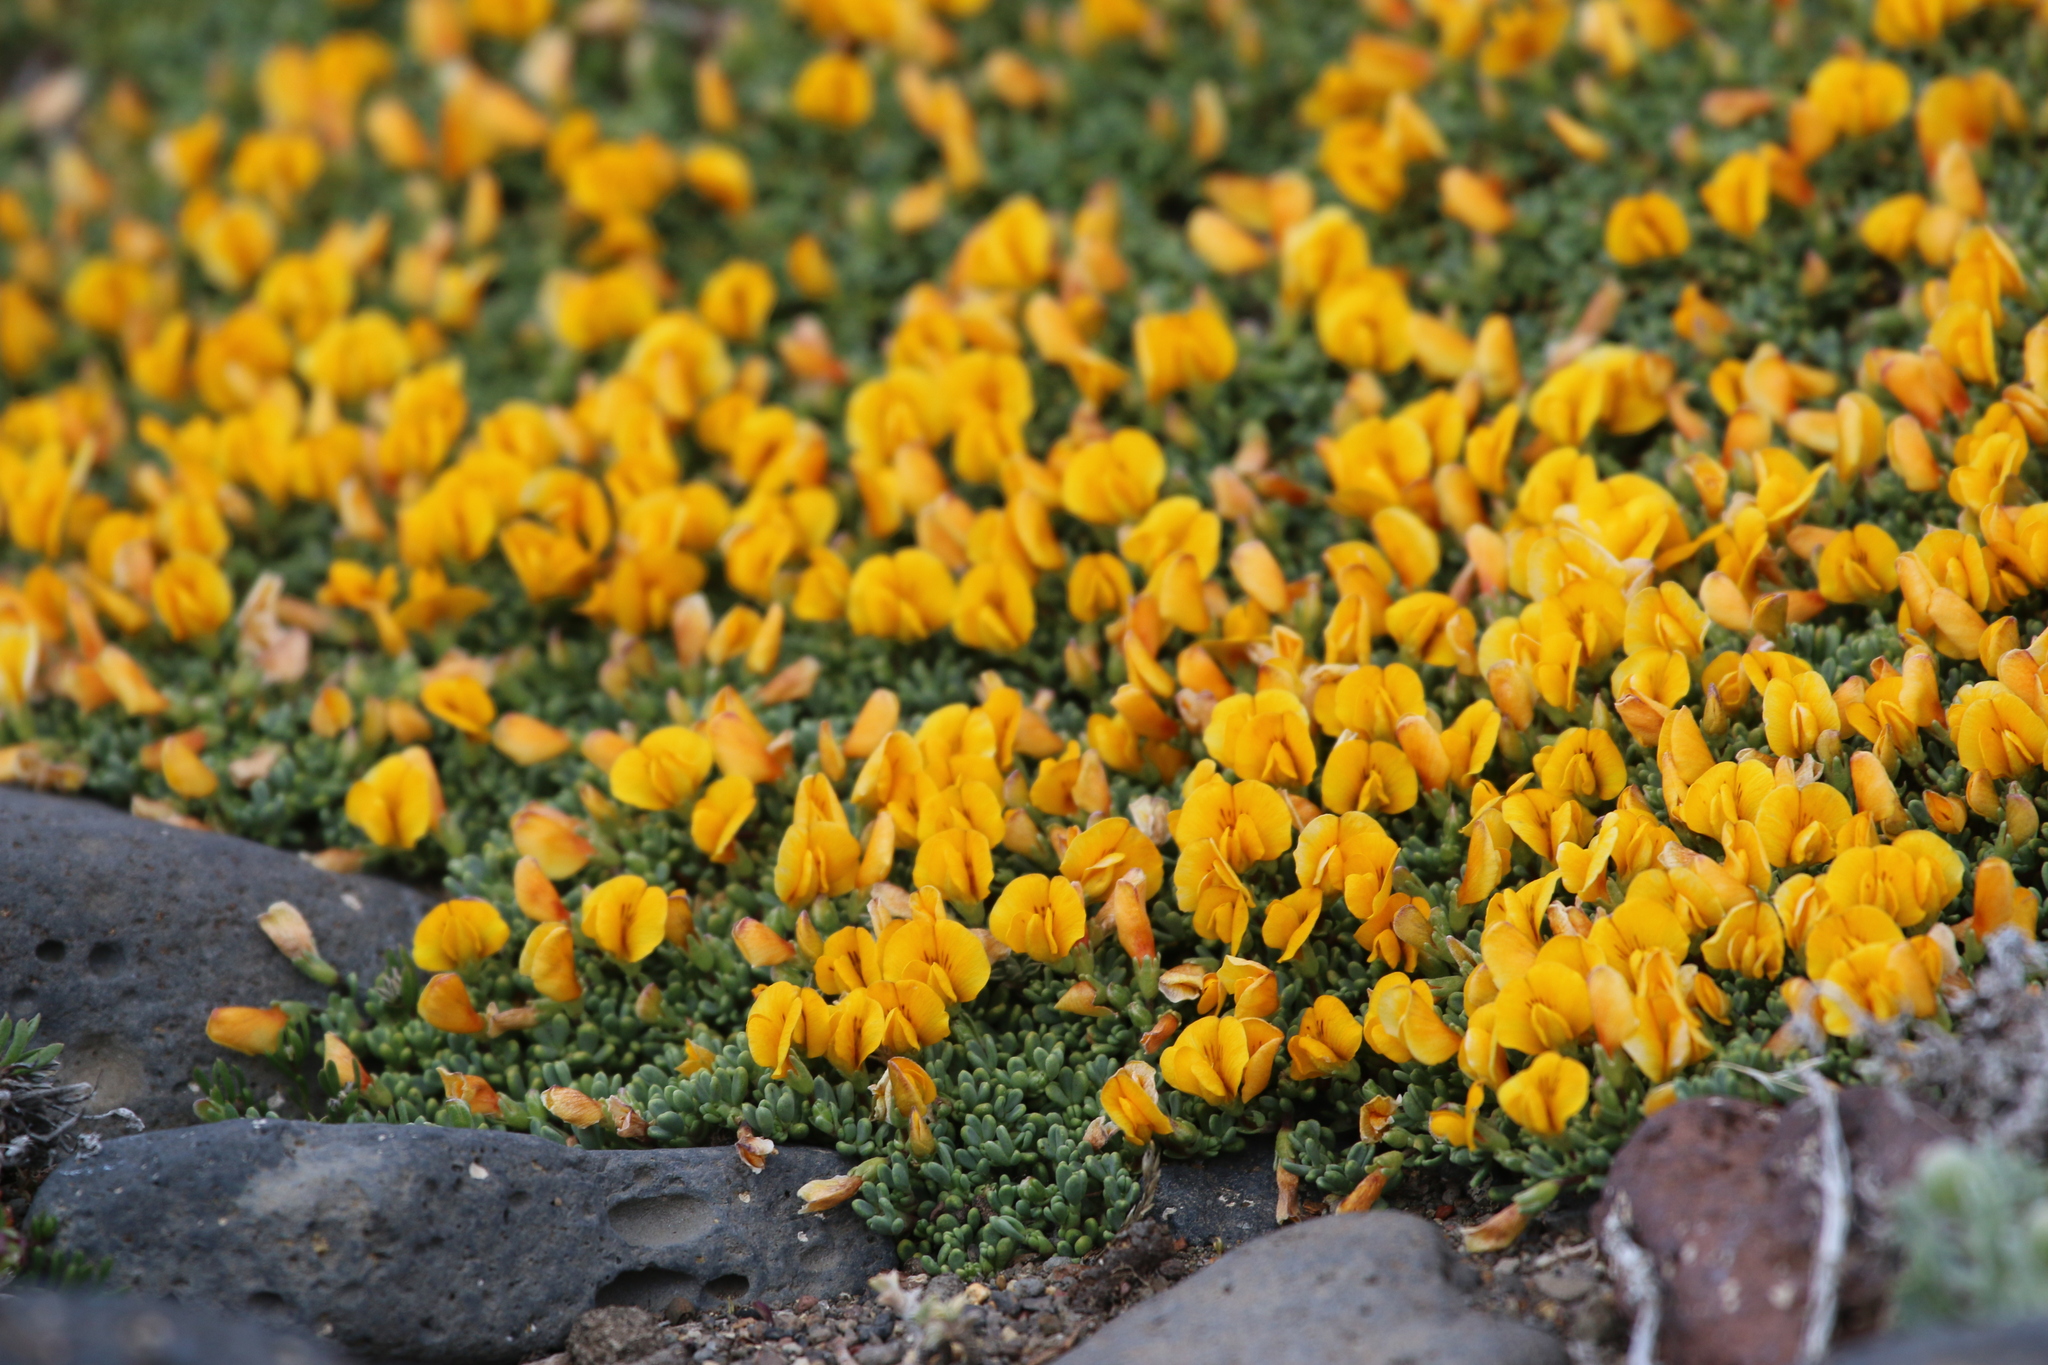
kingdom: Plantae
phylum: Tracheophyta
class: Magnoliopsida
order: Fabales
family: Fabaceae
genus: Adesmia
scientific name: Adesmia salicornioides
